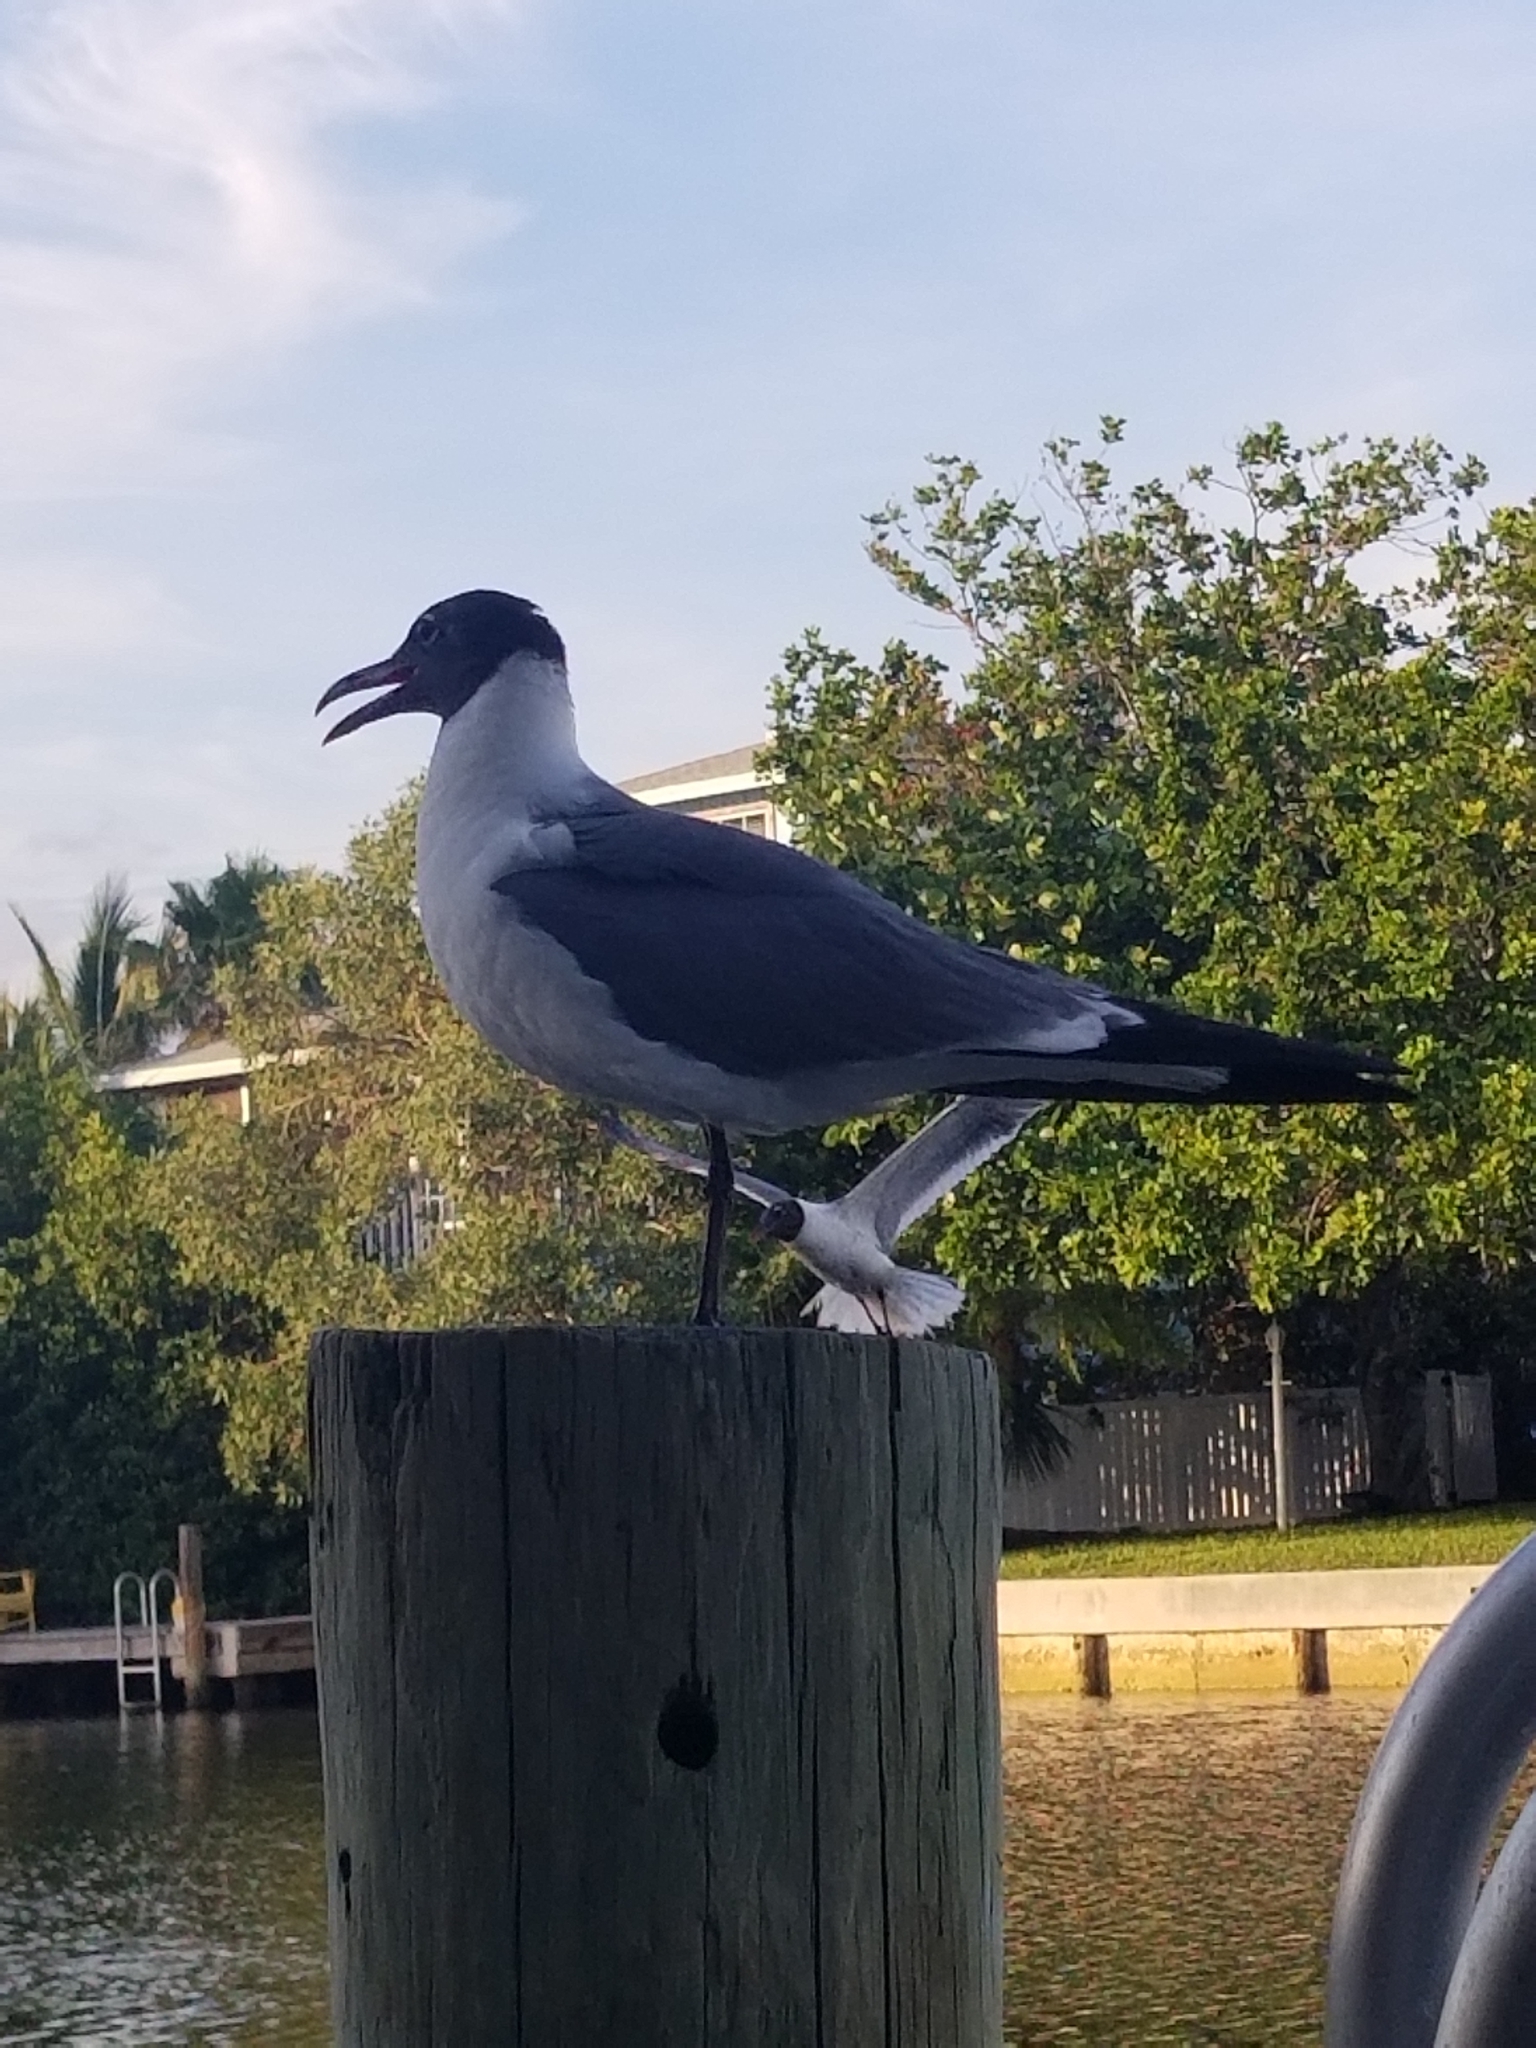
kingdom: Animalia
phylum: Chordata
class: Aves
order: Charadriiformes
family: Laridae
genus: Leucophaeus
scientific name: Leucophaeus atricilla
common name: Laughing gull
